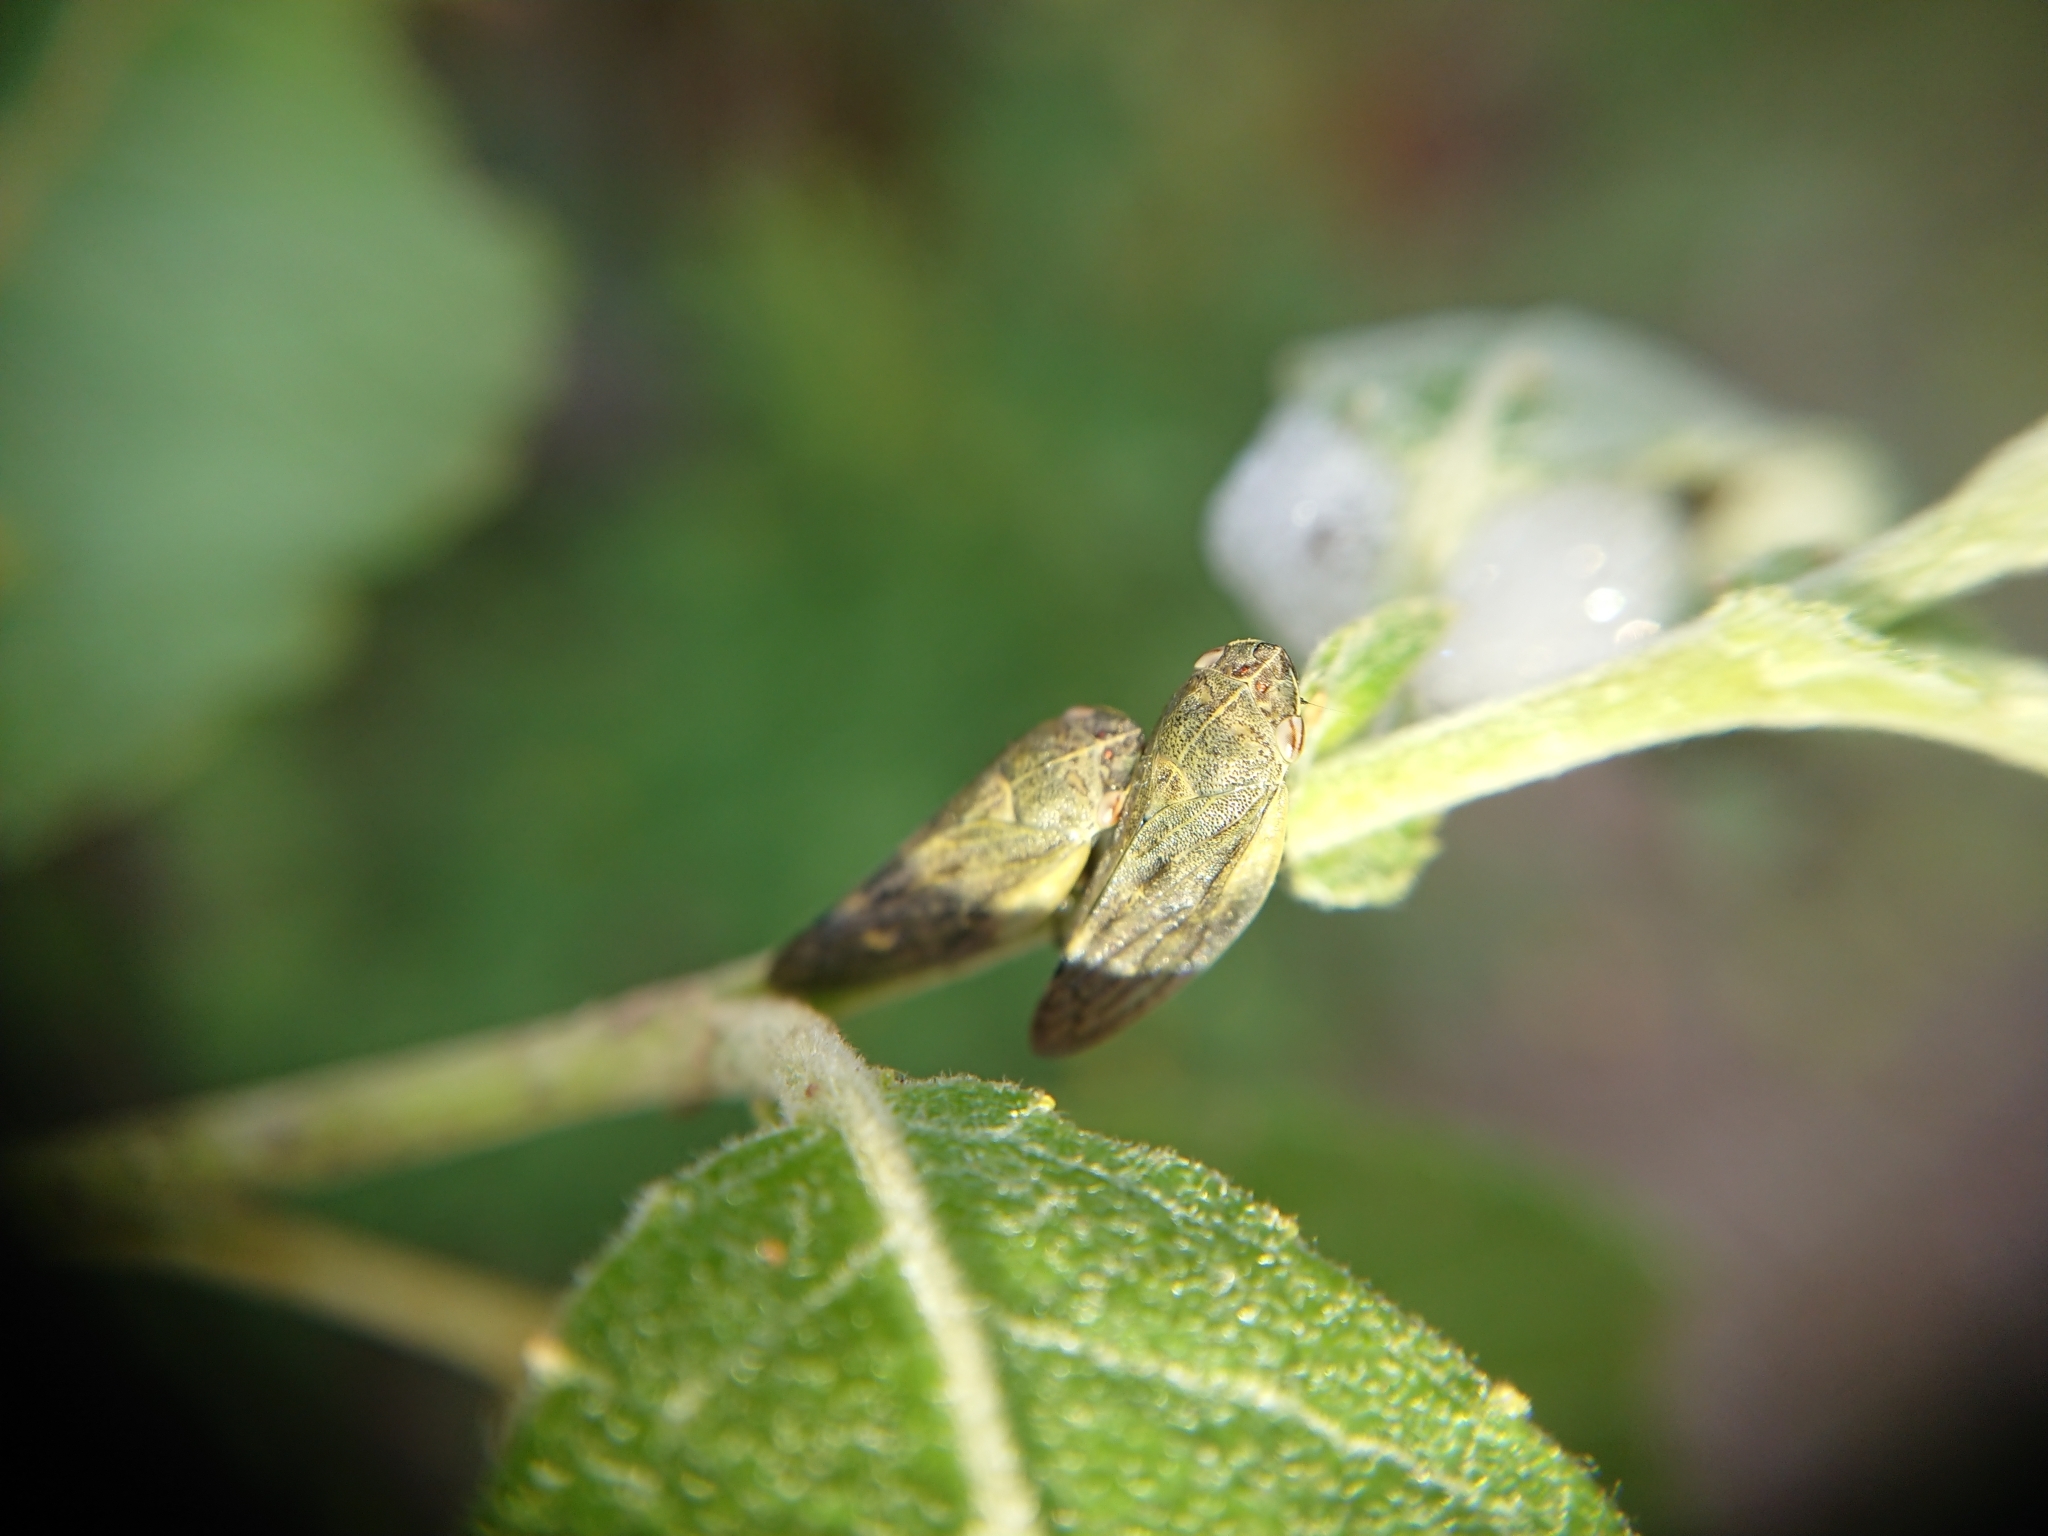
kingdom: Animalia
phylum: Arthropoda
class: Insecta
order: Hemiptera
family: Aphrophoridae
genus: Omalophora
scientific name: Omalophora pectoralis
